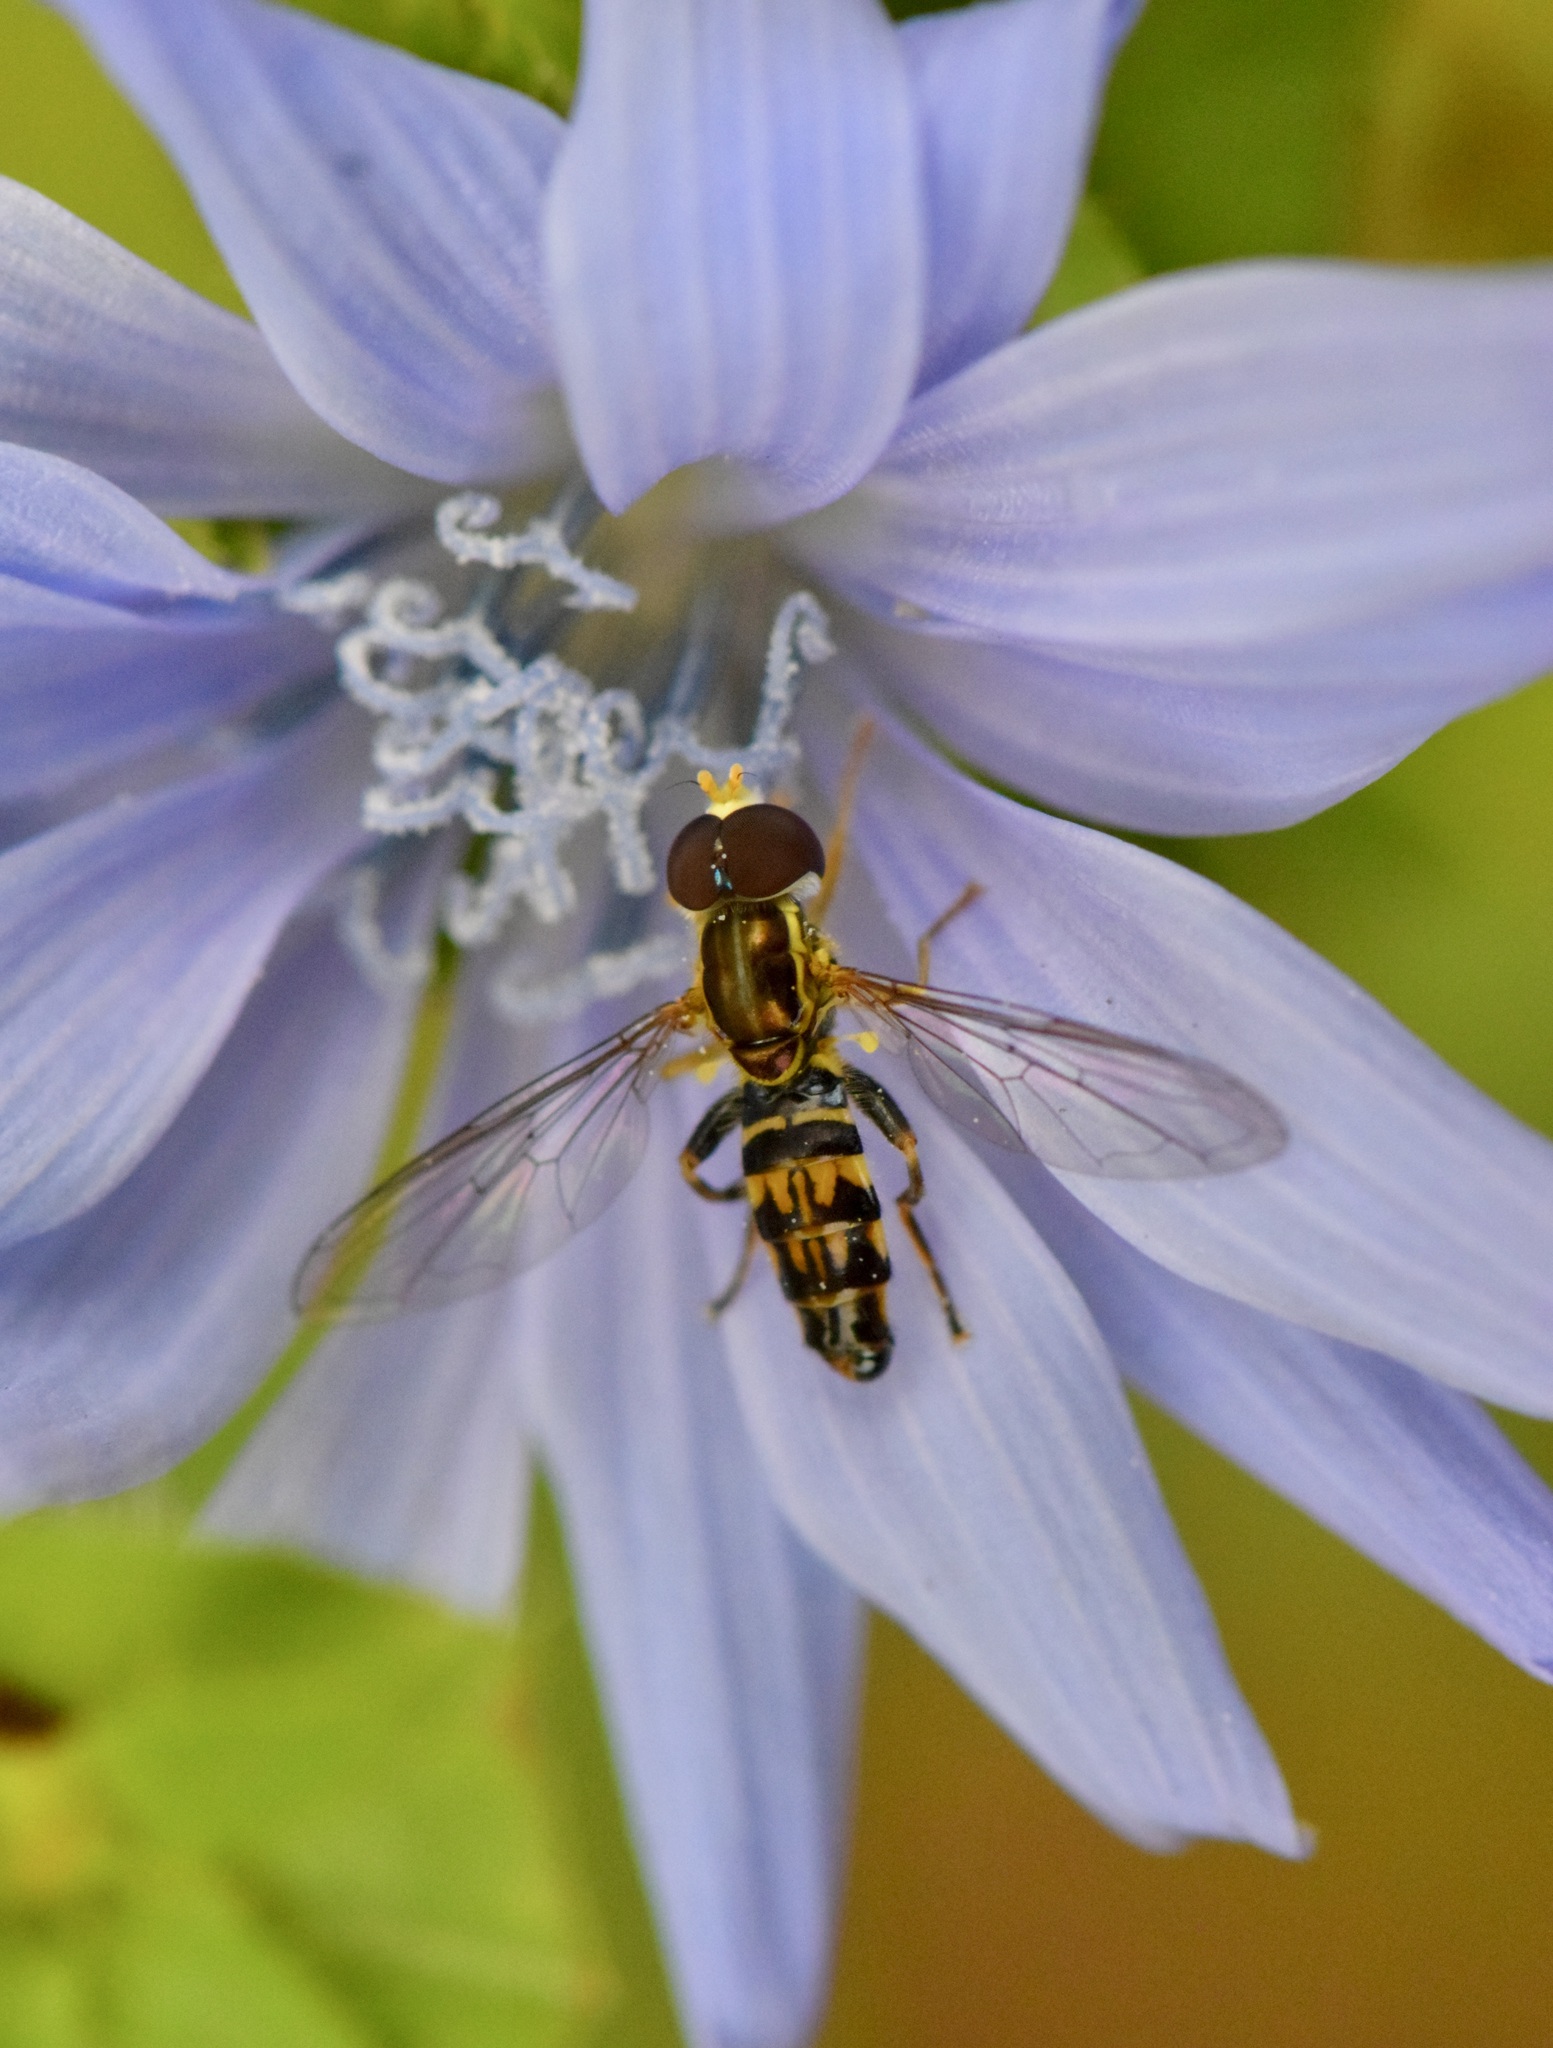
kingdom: Animalia
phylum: Arthropoda
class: Insecta
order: Diptera
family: Syrphidae
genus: Toxomerus
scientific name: Toxomerus geminatus
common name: Eastern calligrapher
